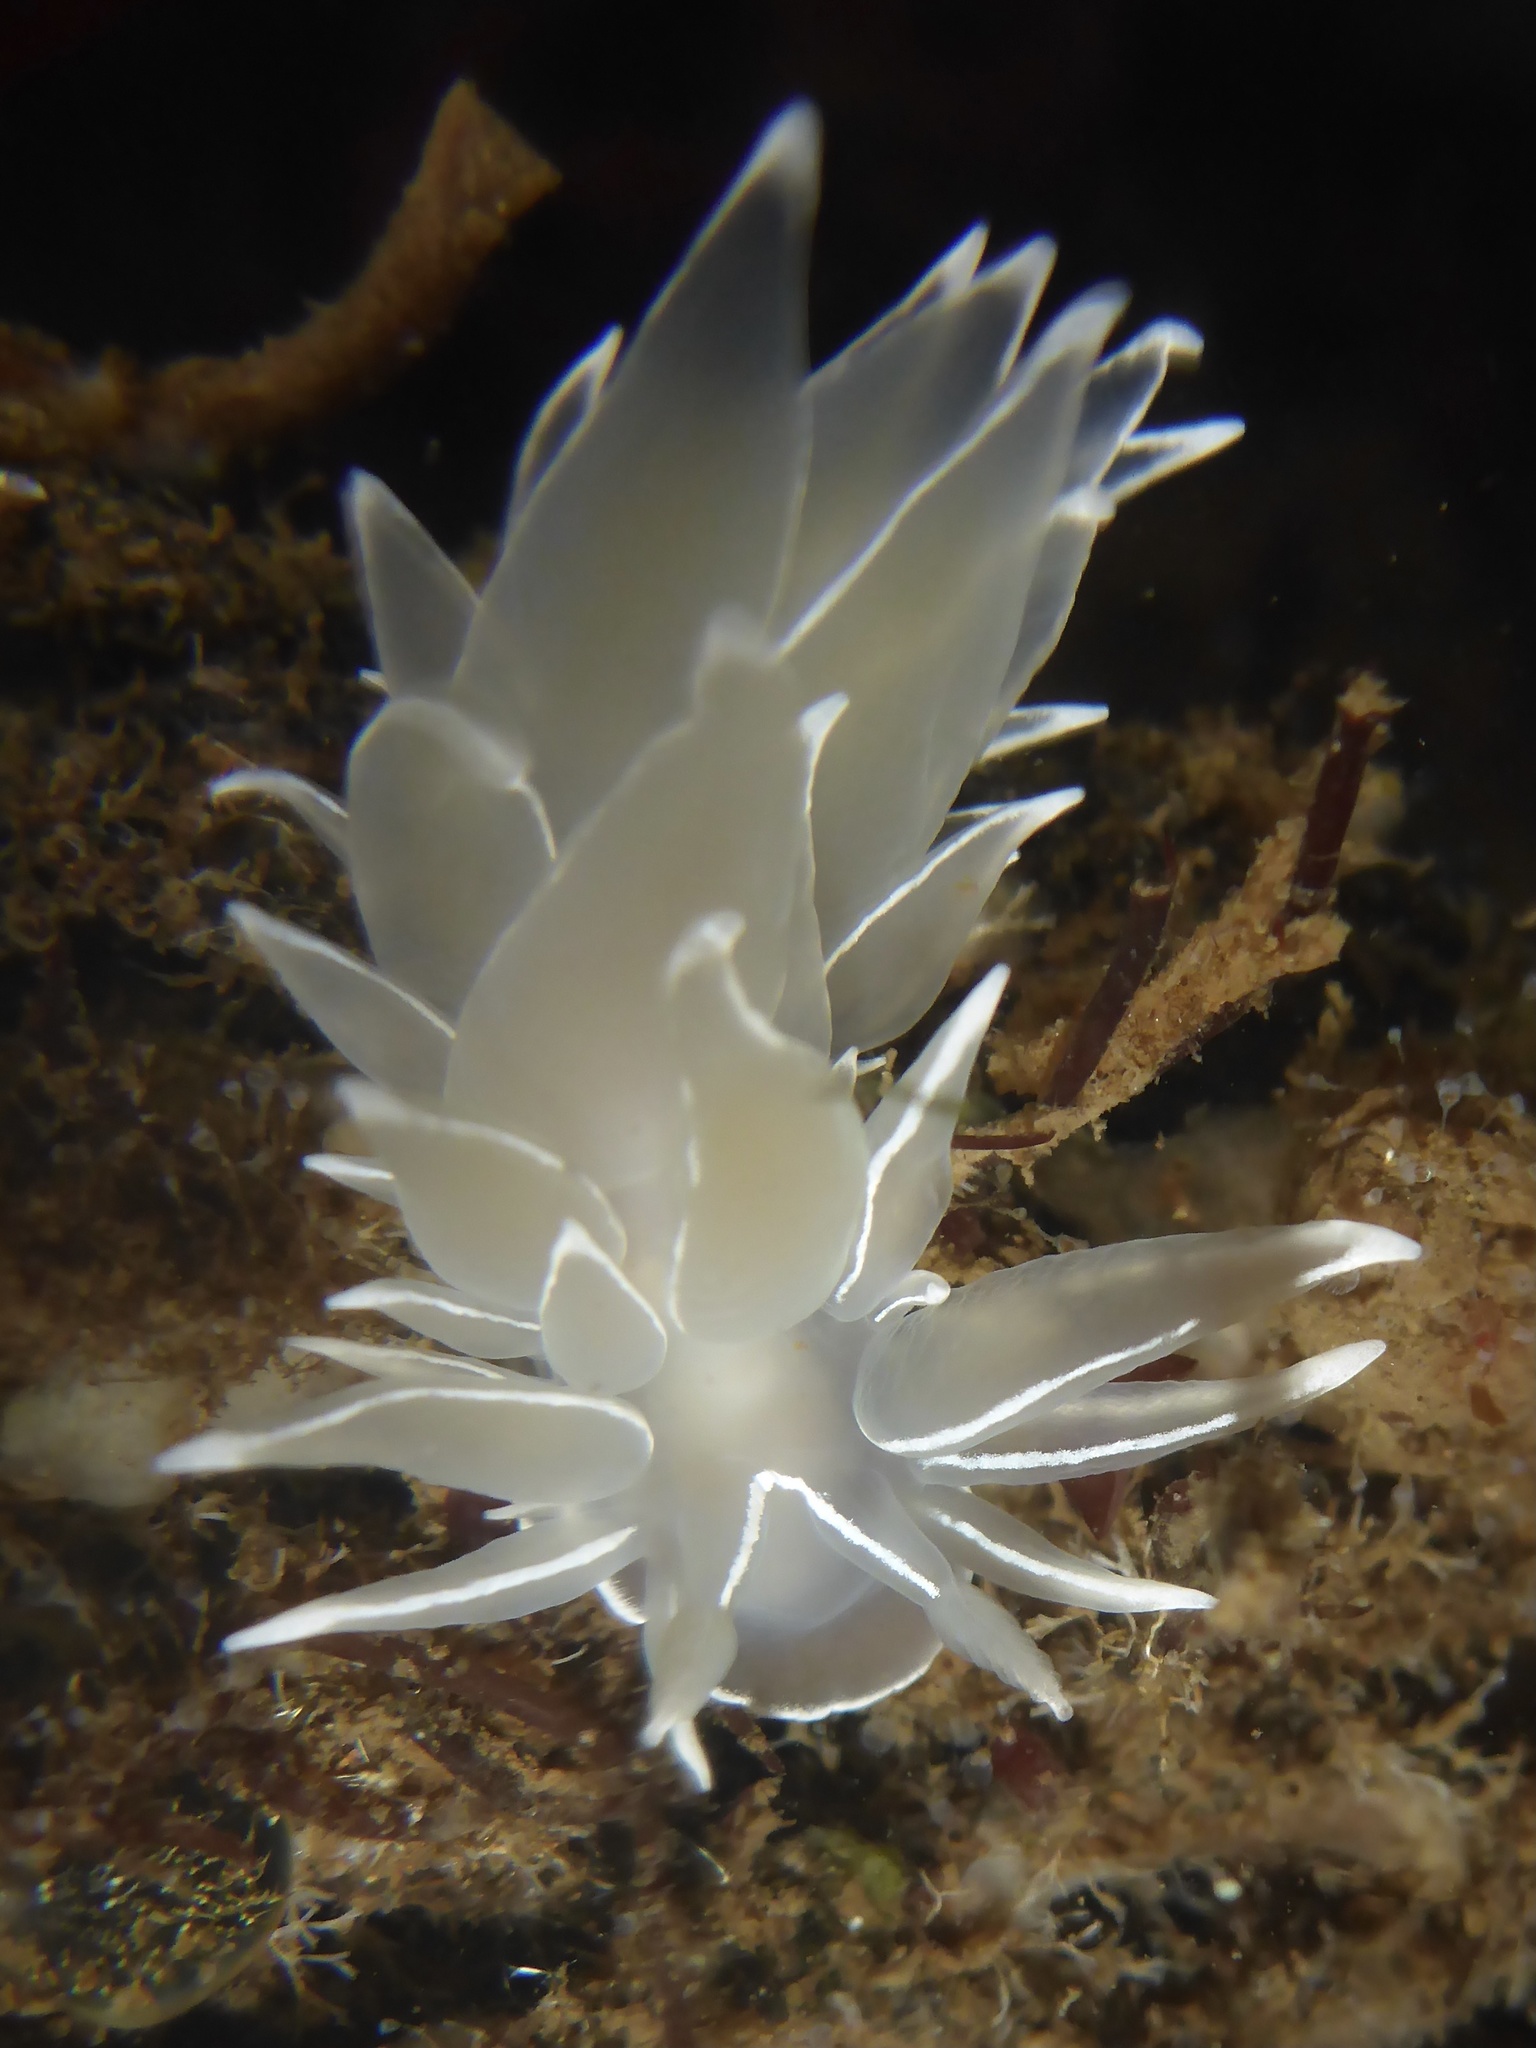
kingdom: Animalia
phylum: Mollusca
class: Gastropoda
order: Nudibranchia
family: Dironidae
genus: Dirona
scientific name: Dirona albolineata
